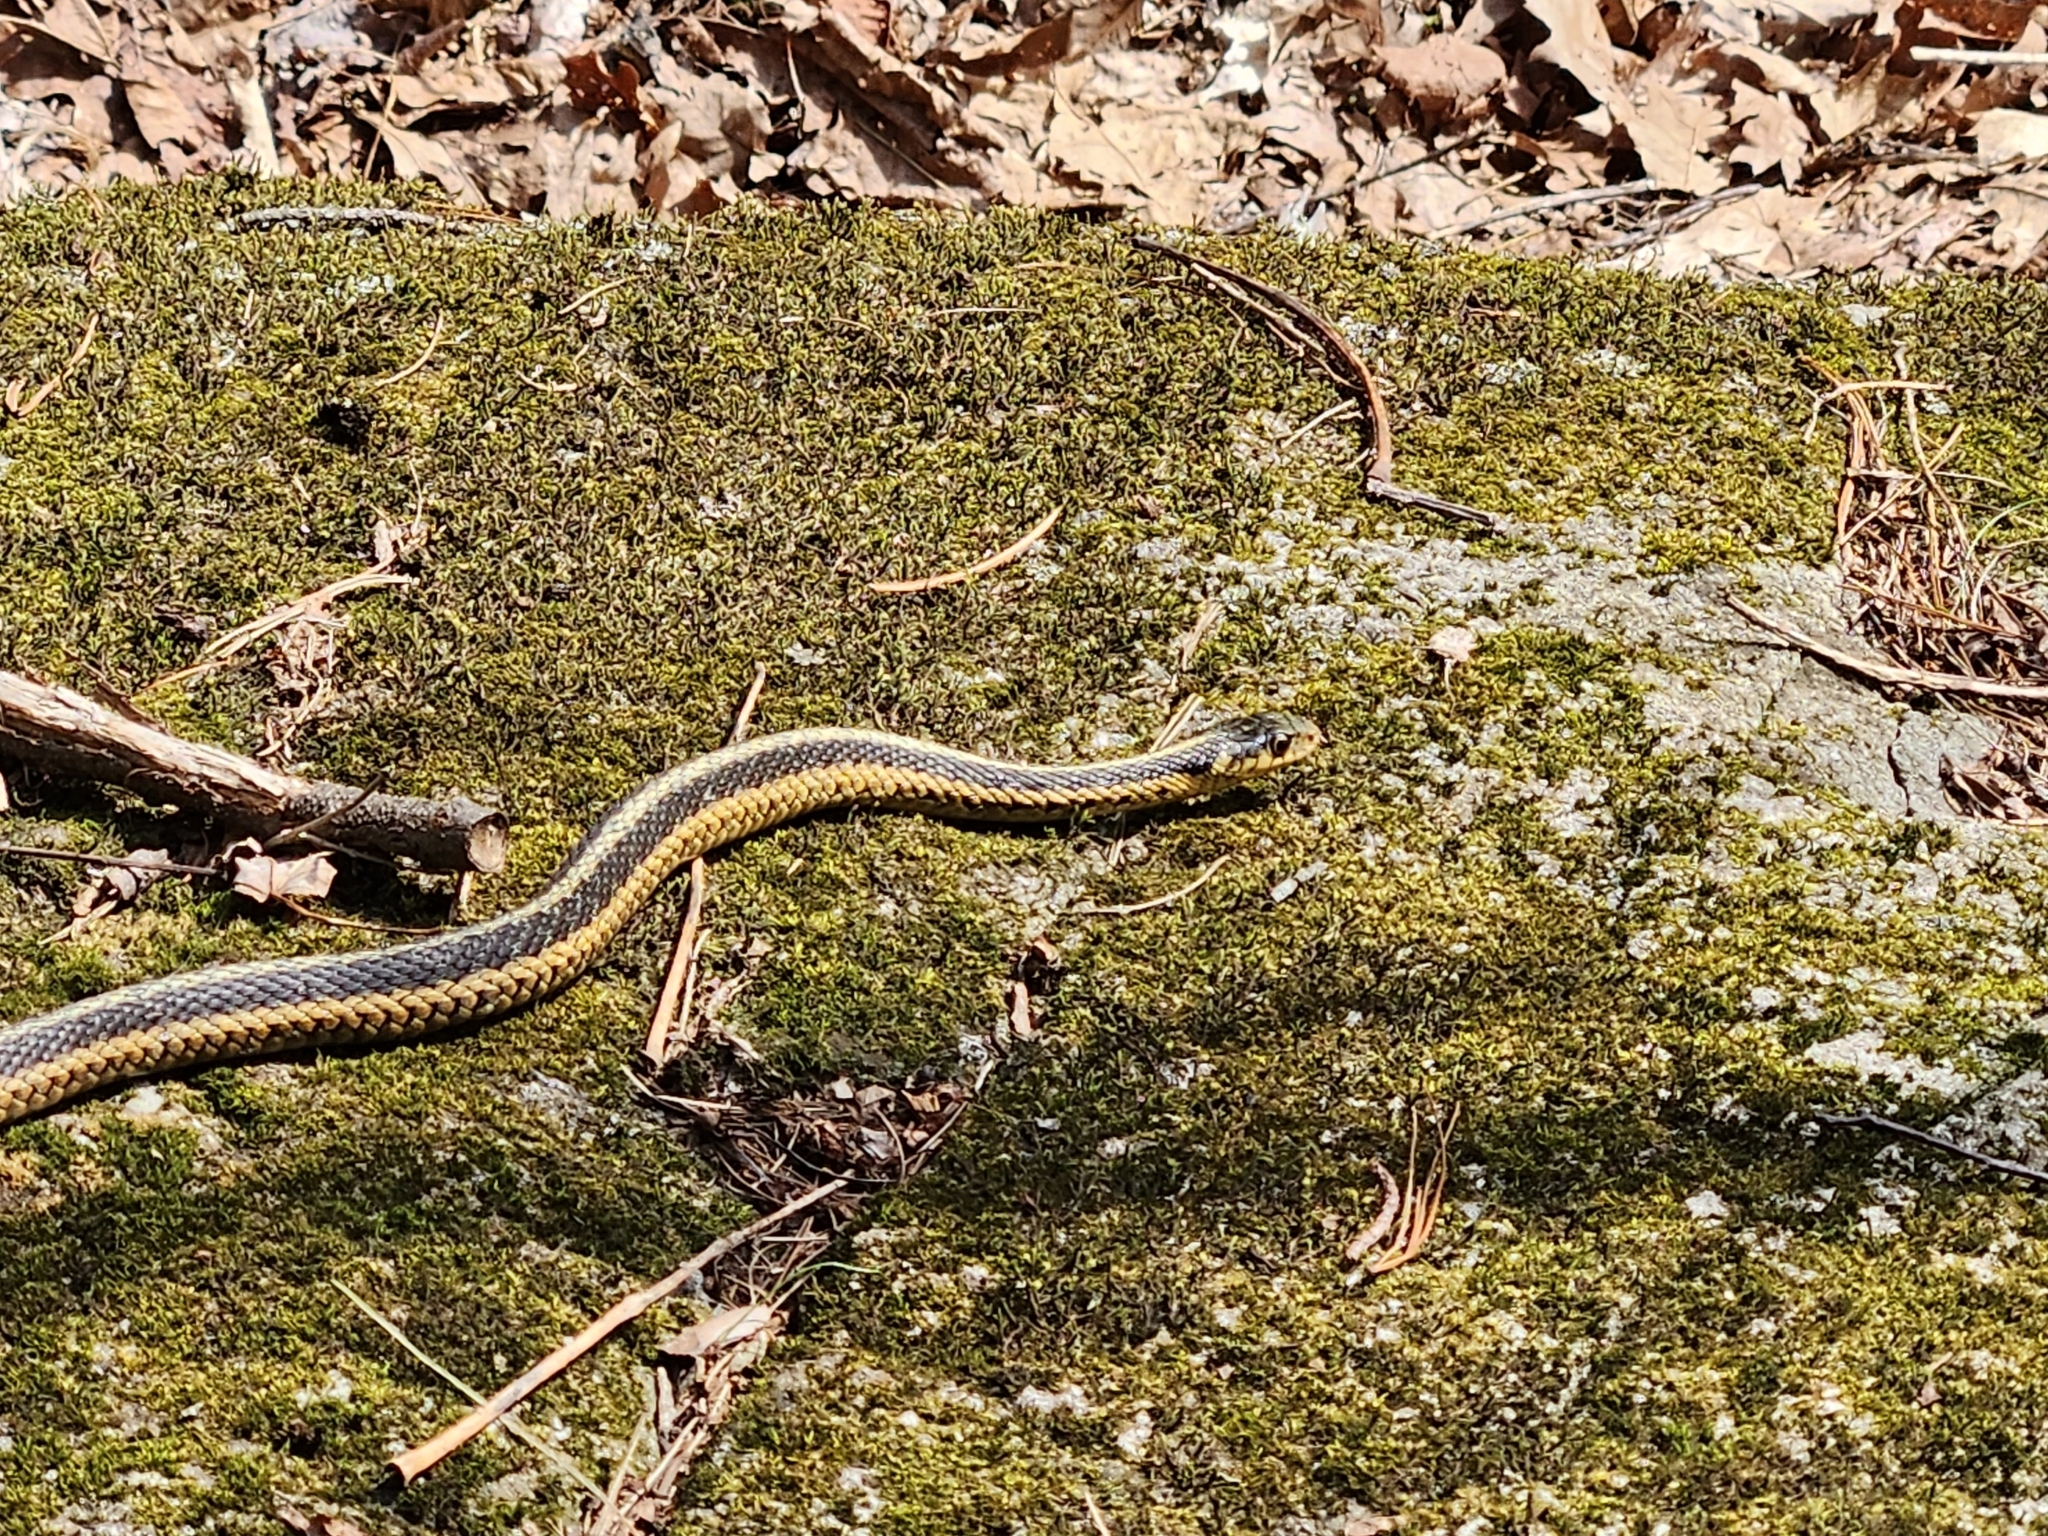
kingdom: Animalia
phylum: Chordata
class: Squamata
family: Colubridae
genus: Thamnophis
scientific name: Thamnophis sirtalis
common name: Common garter snake
